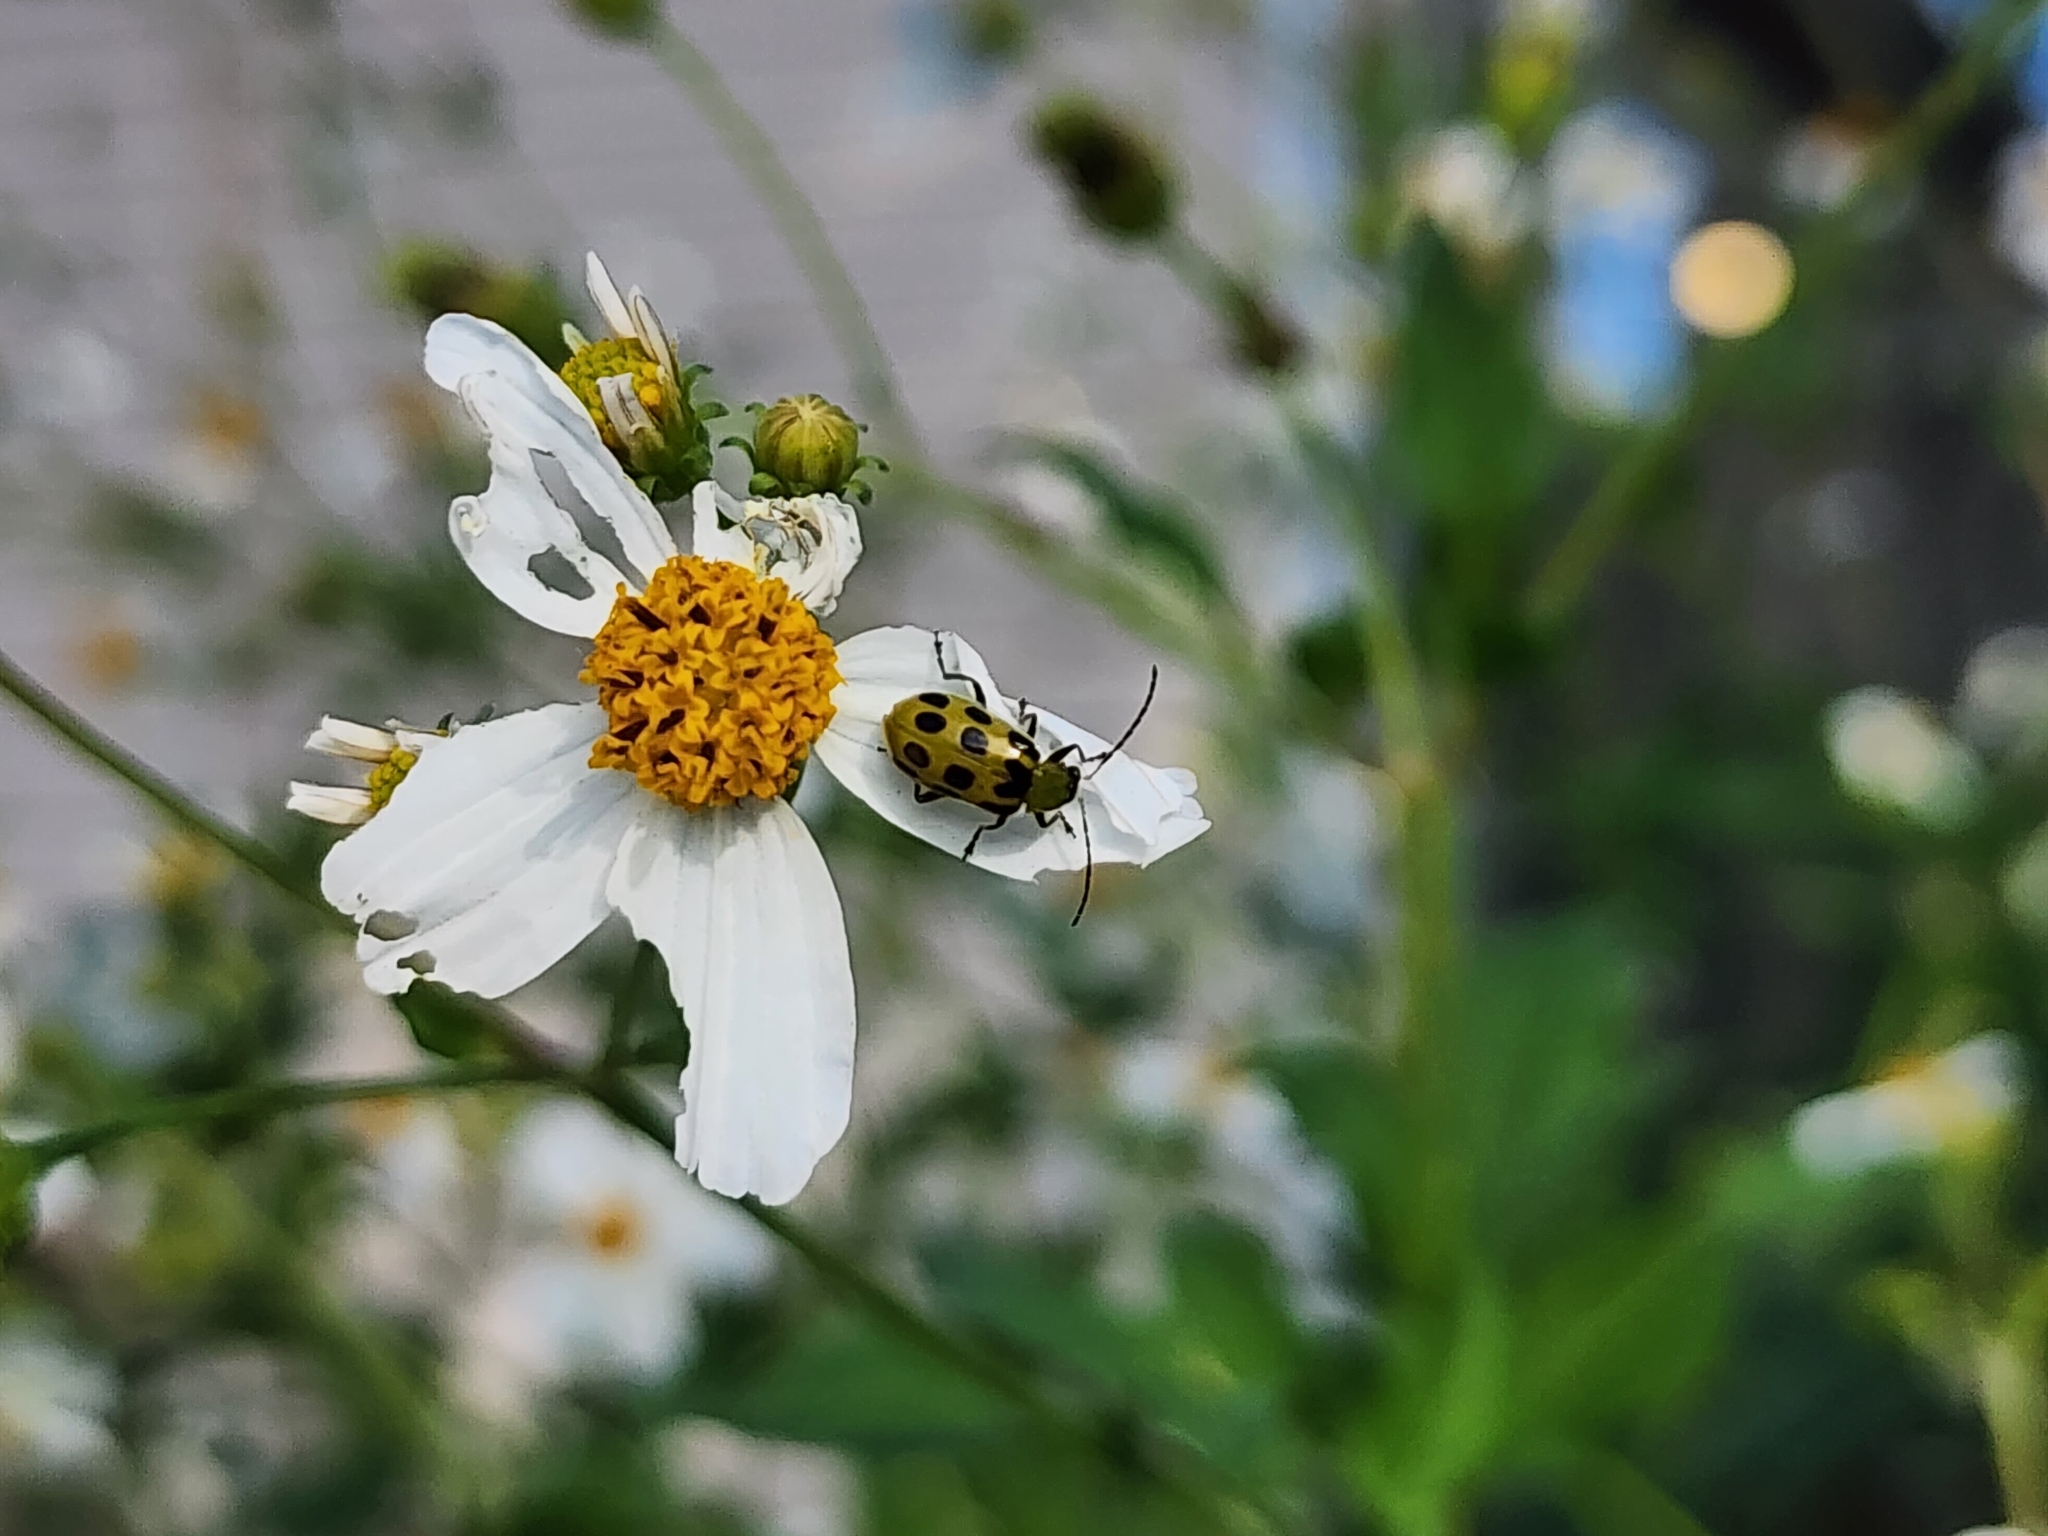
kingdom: Animalia
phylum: Arthropoda
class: Insecta
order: Coleoptera
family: Chrysomelidae
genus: Diabrotica
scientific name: Diabrotica undecimpunctata
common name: Spotted cucumber beetle
